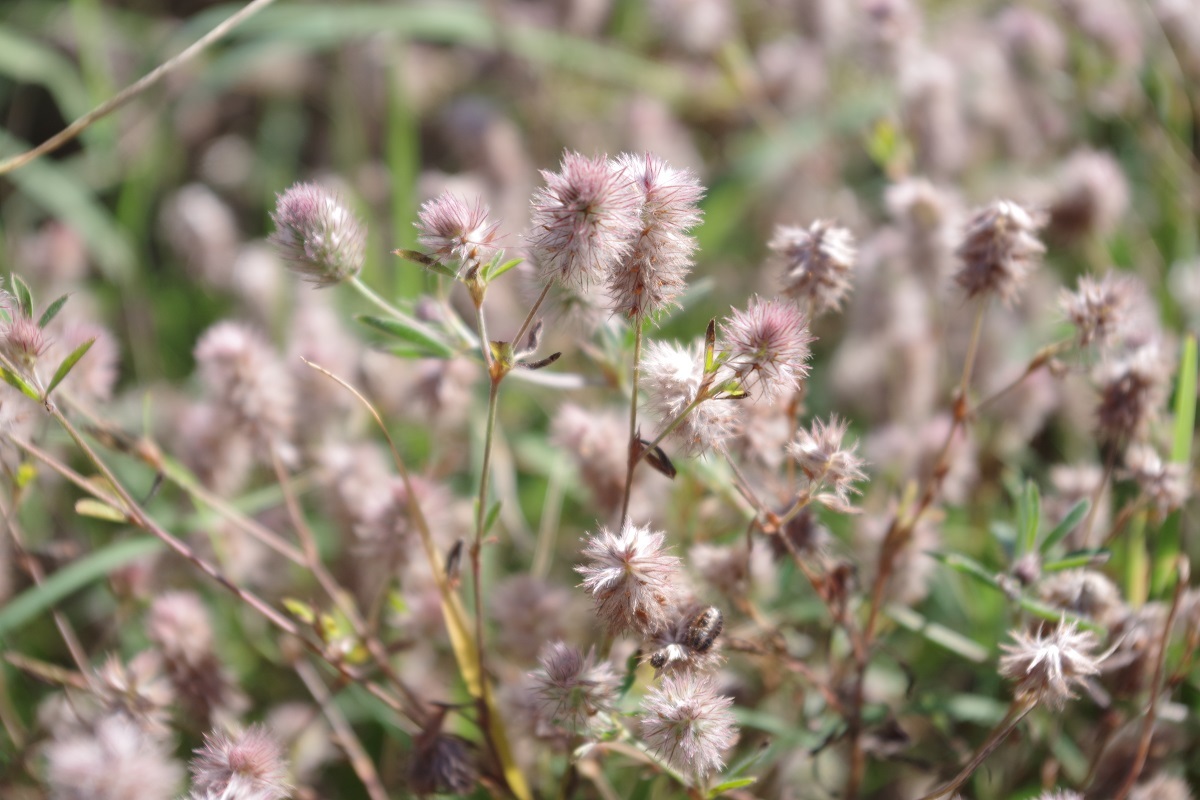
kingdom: Plantae
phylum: Tracheophyta
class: Magnoliopsida
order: Fabales
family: Fabaceae
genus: Trifolium
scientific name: Trifolium arvense
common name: Hare's-foot clover
